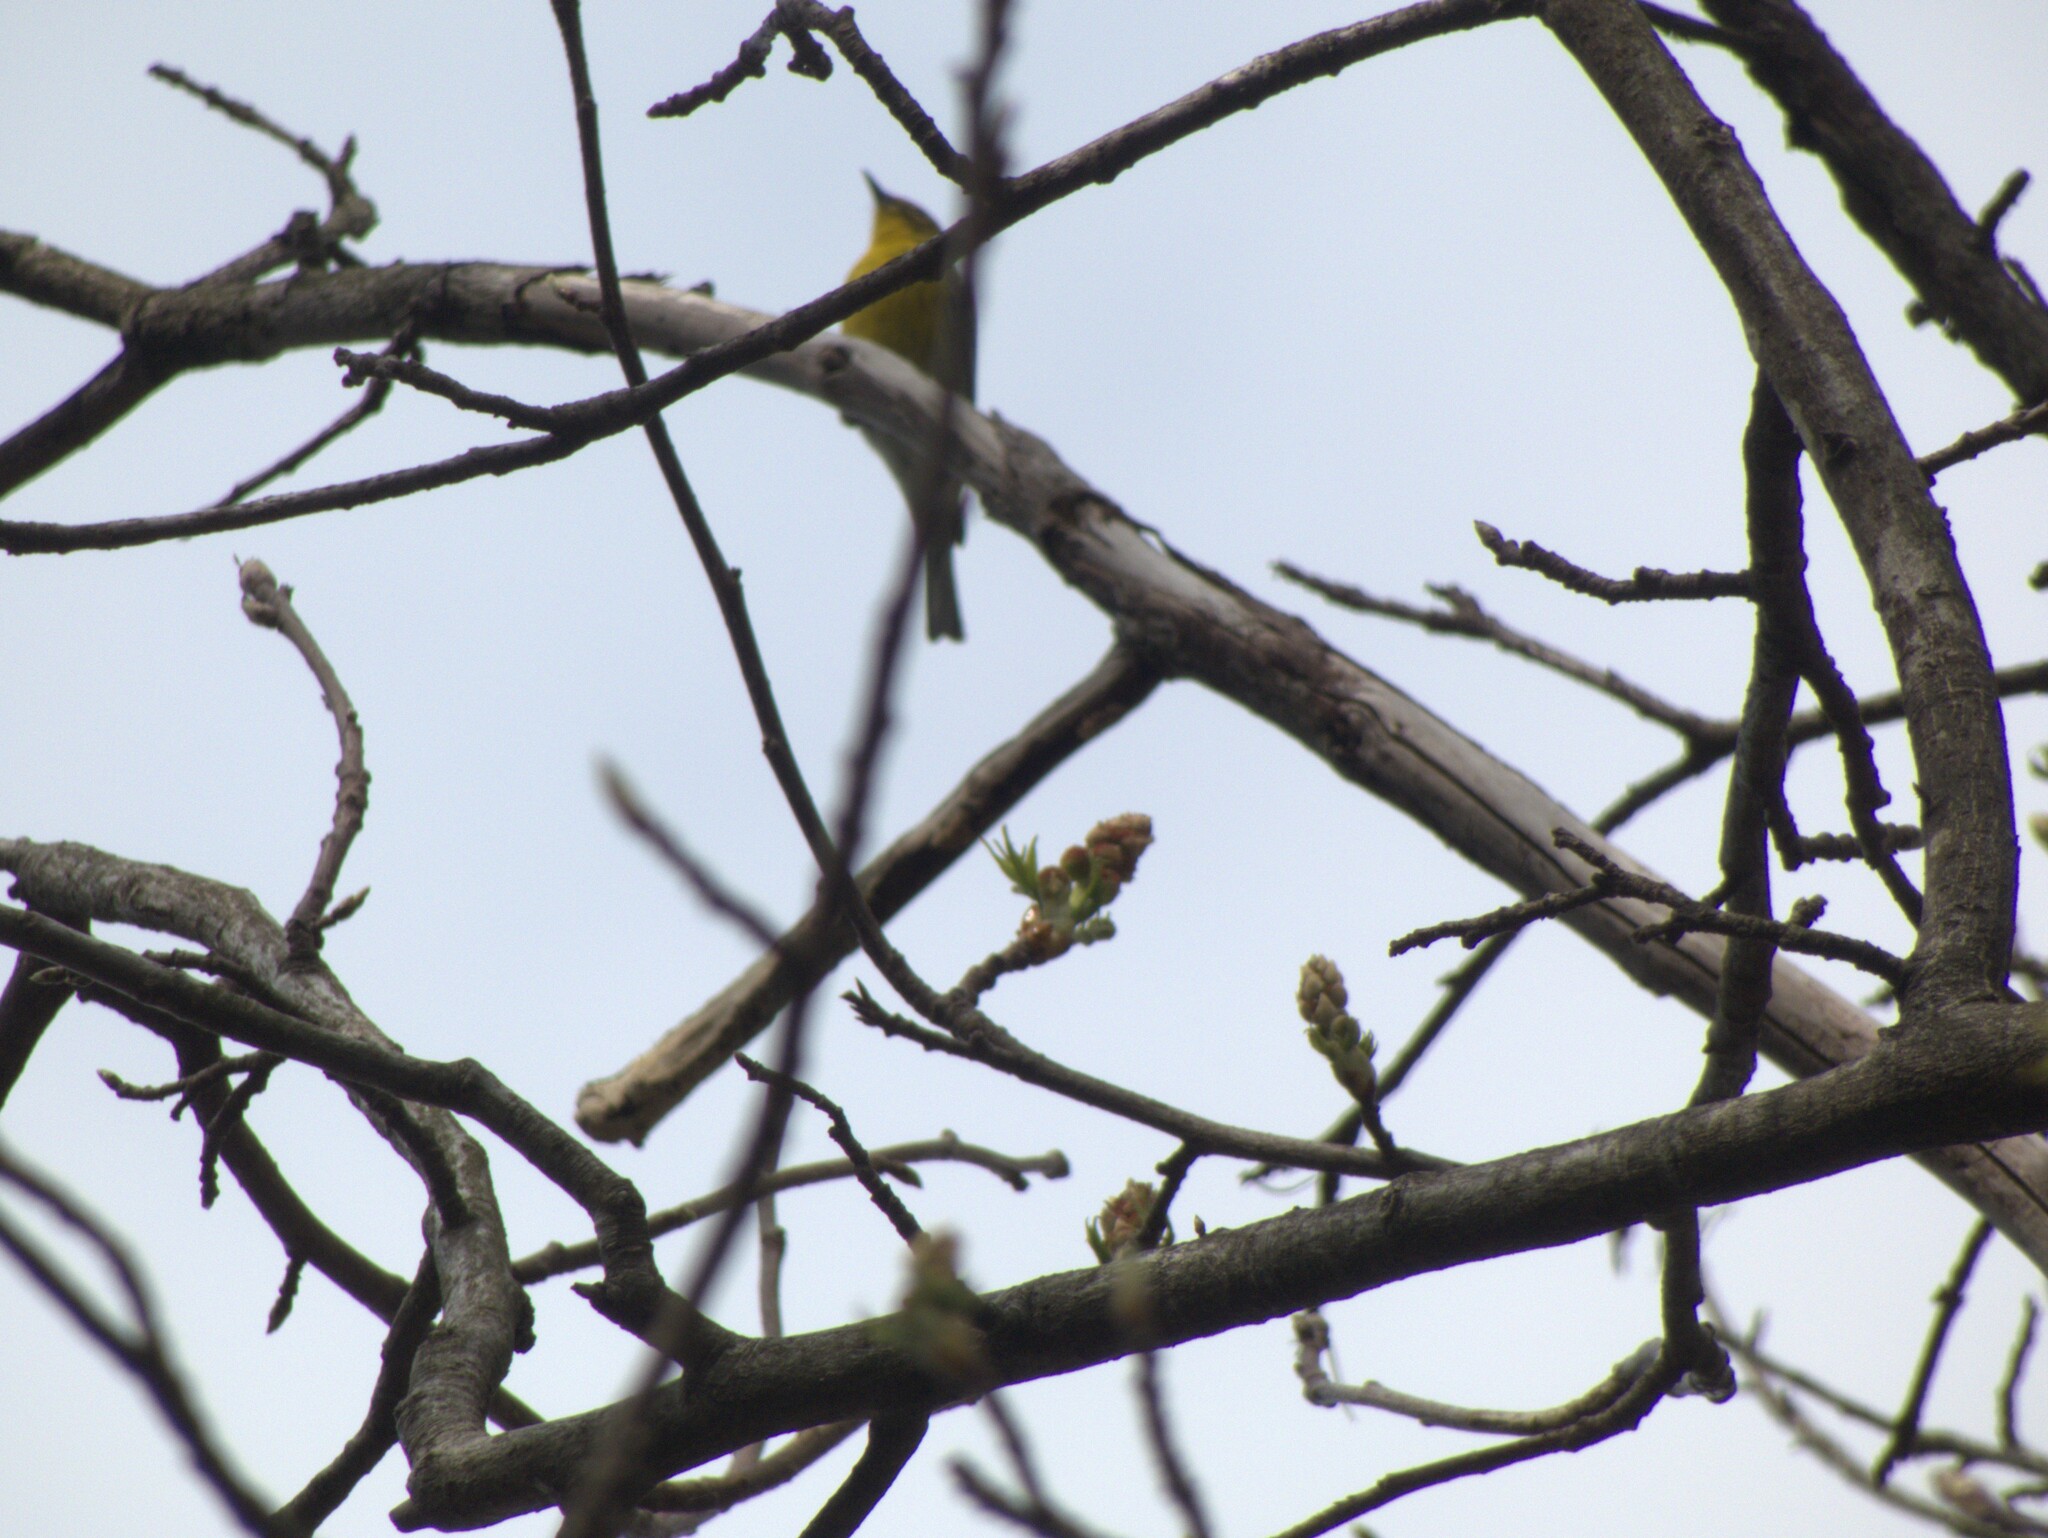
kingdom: Animalia
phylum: Chordata
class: Aves
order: Passeriformes
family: Parulidae
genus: Setophaga
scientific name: Setophaga pinus
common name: Pine warbler
